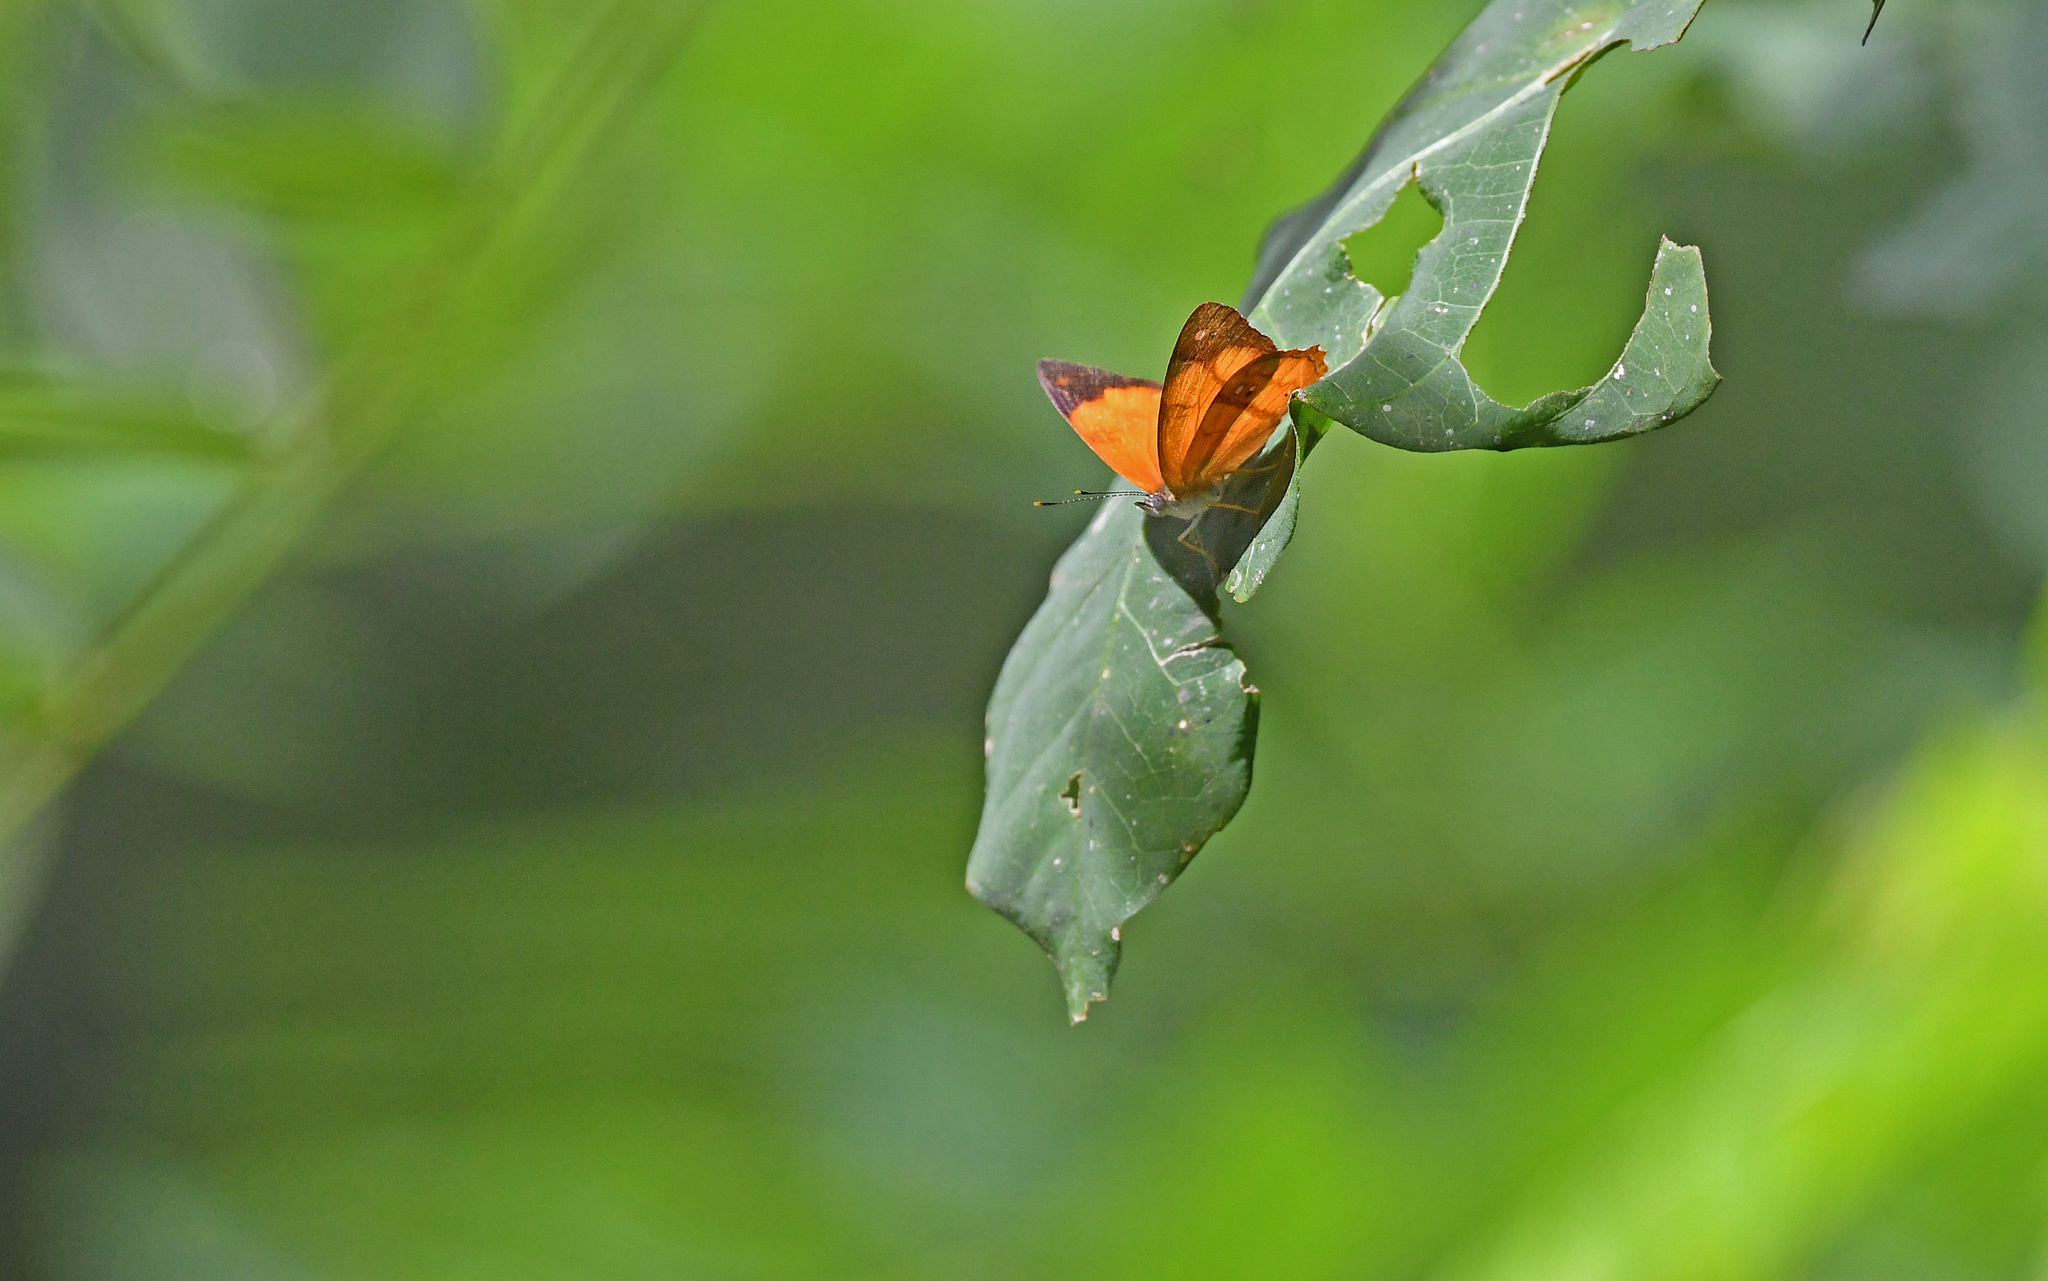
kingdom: Animalia
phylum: Arthropoda
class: Insecta
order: Lepidoptera
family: Nymphalidae
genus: Nica
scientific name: Nica flavilla
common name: Mandarin nica
